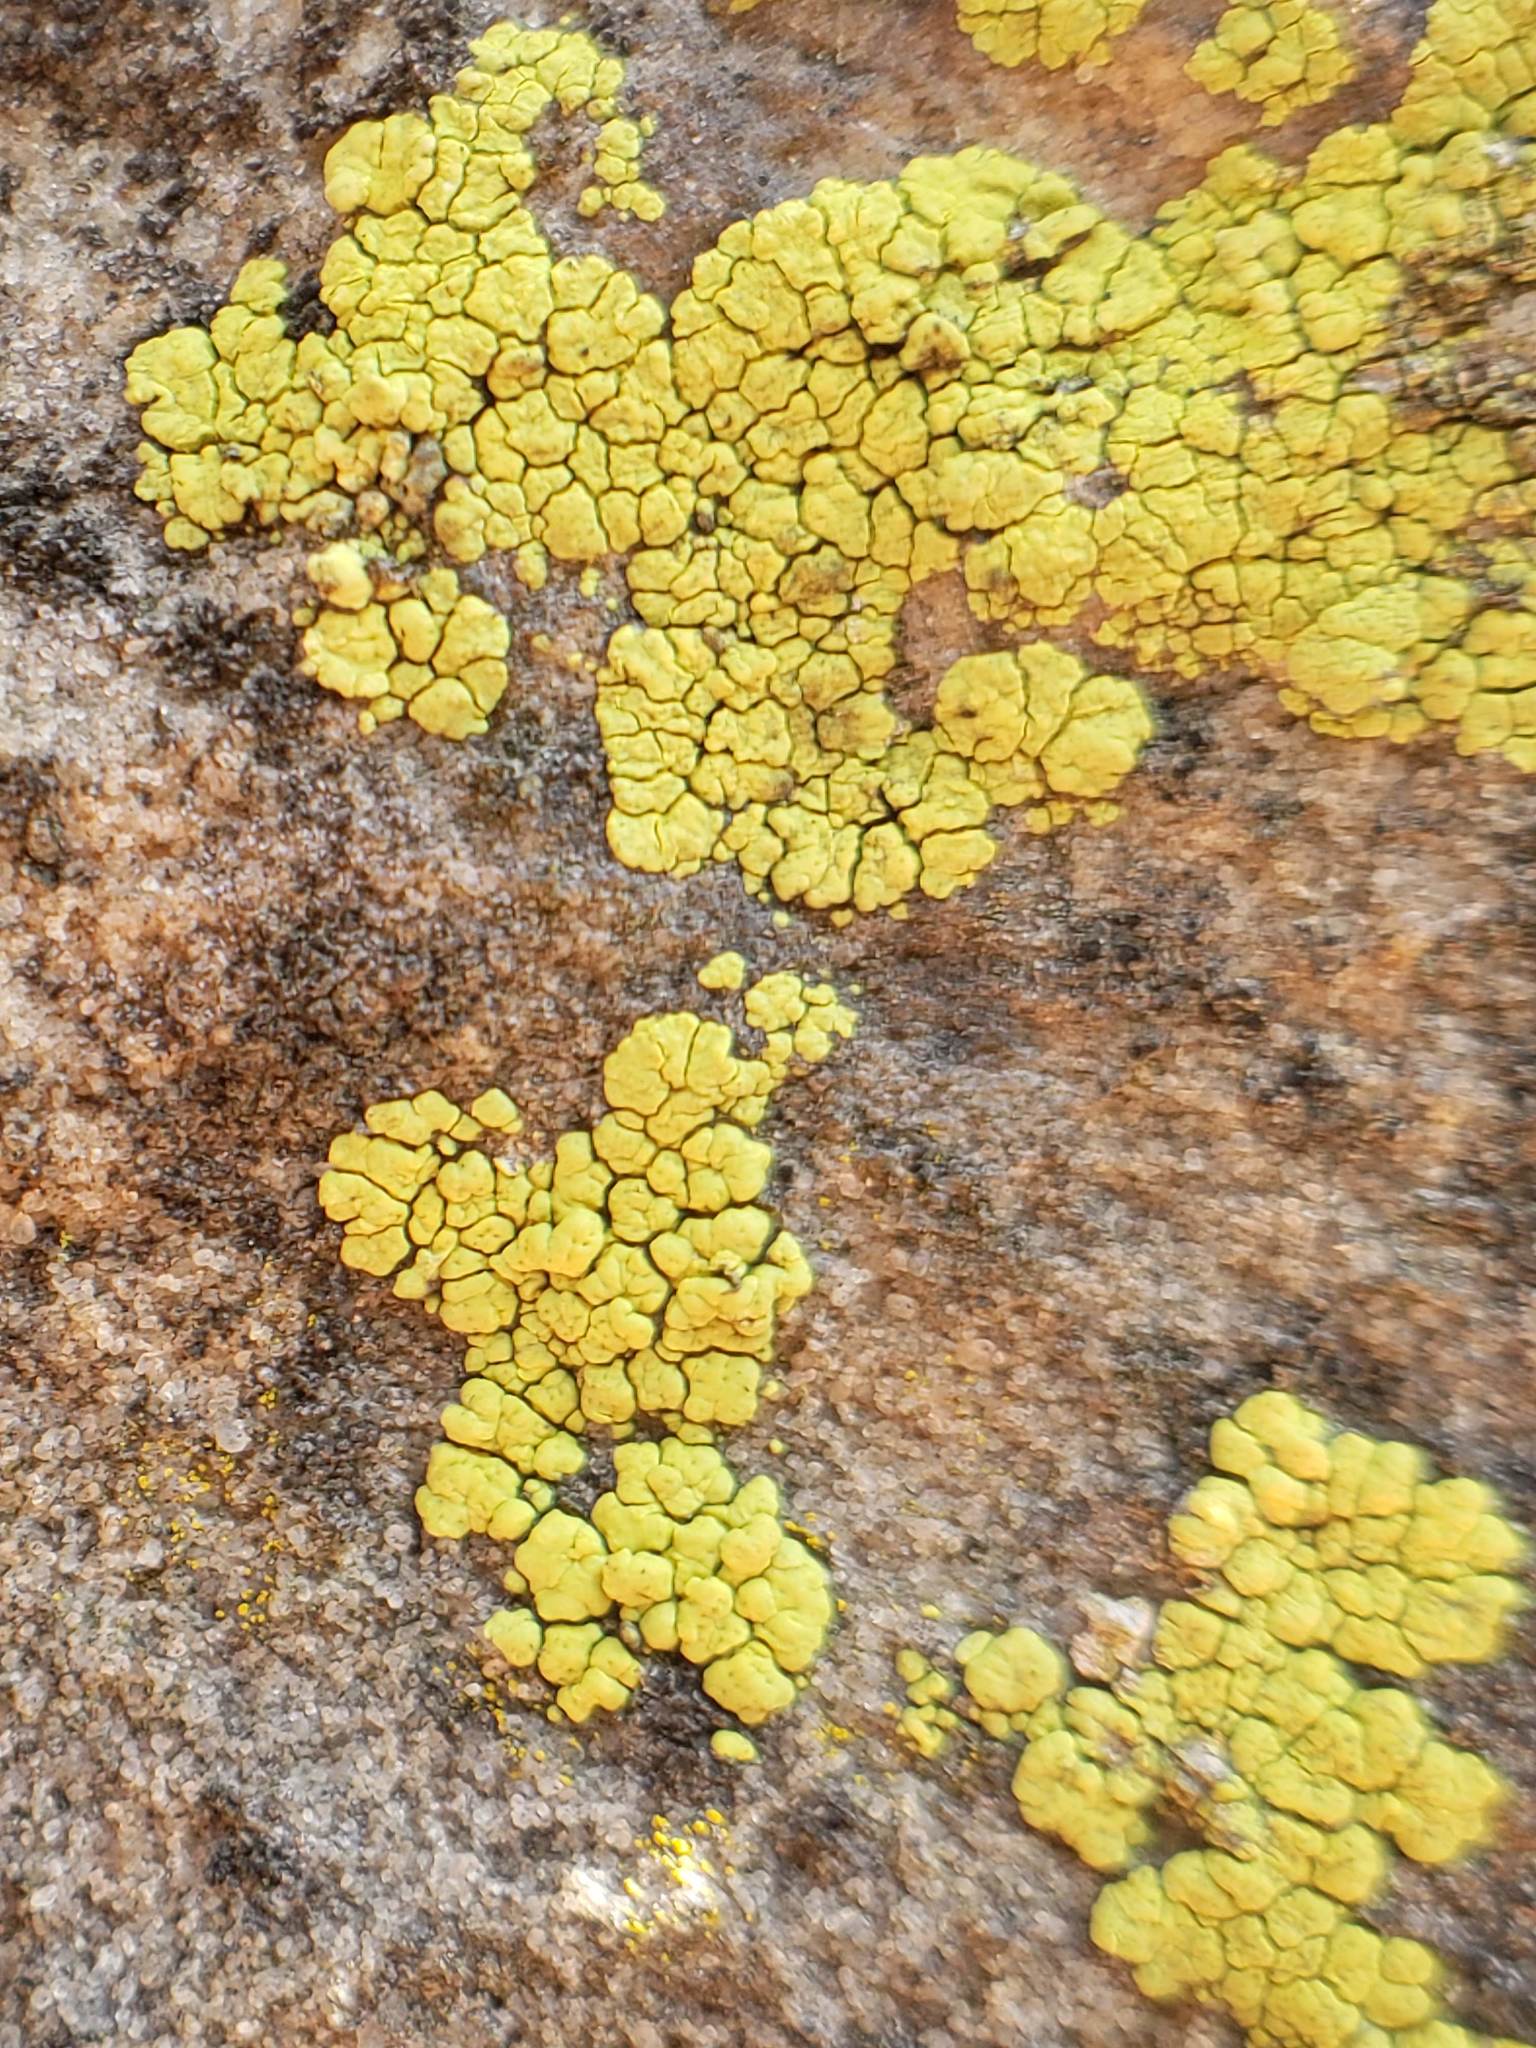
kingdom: Fungi
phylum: Ascomycota
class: Lecanoromycetes
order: Acarosporales
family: Acarosporaceae
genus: Acarospora
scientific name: Acarospora socialis
